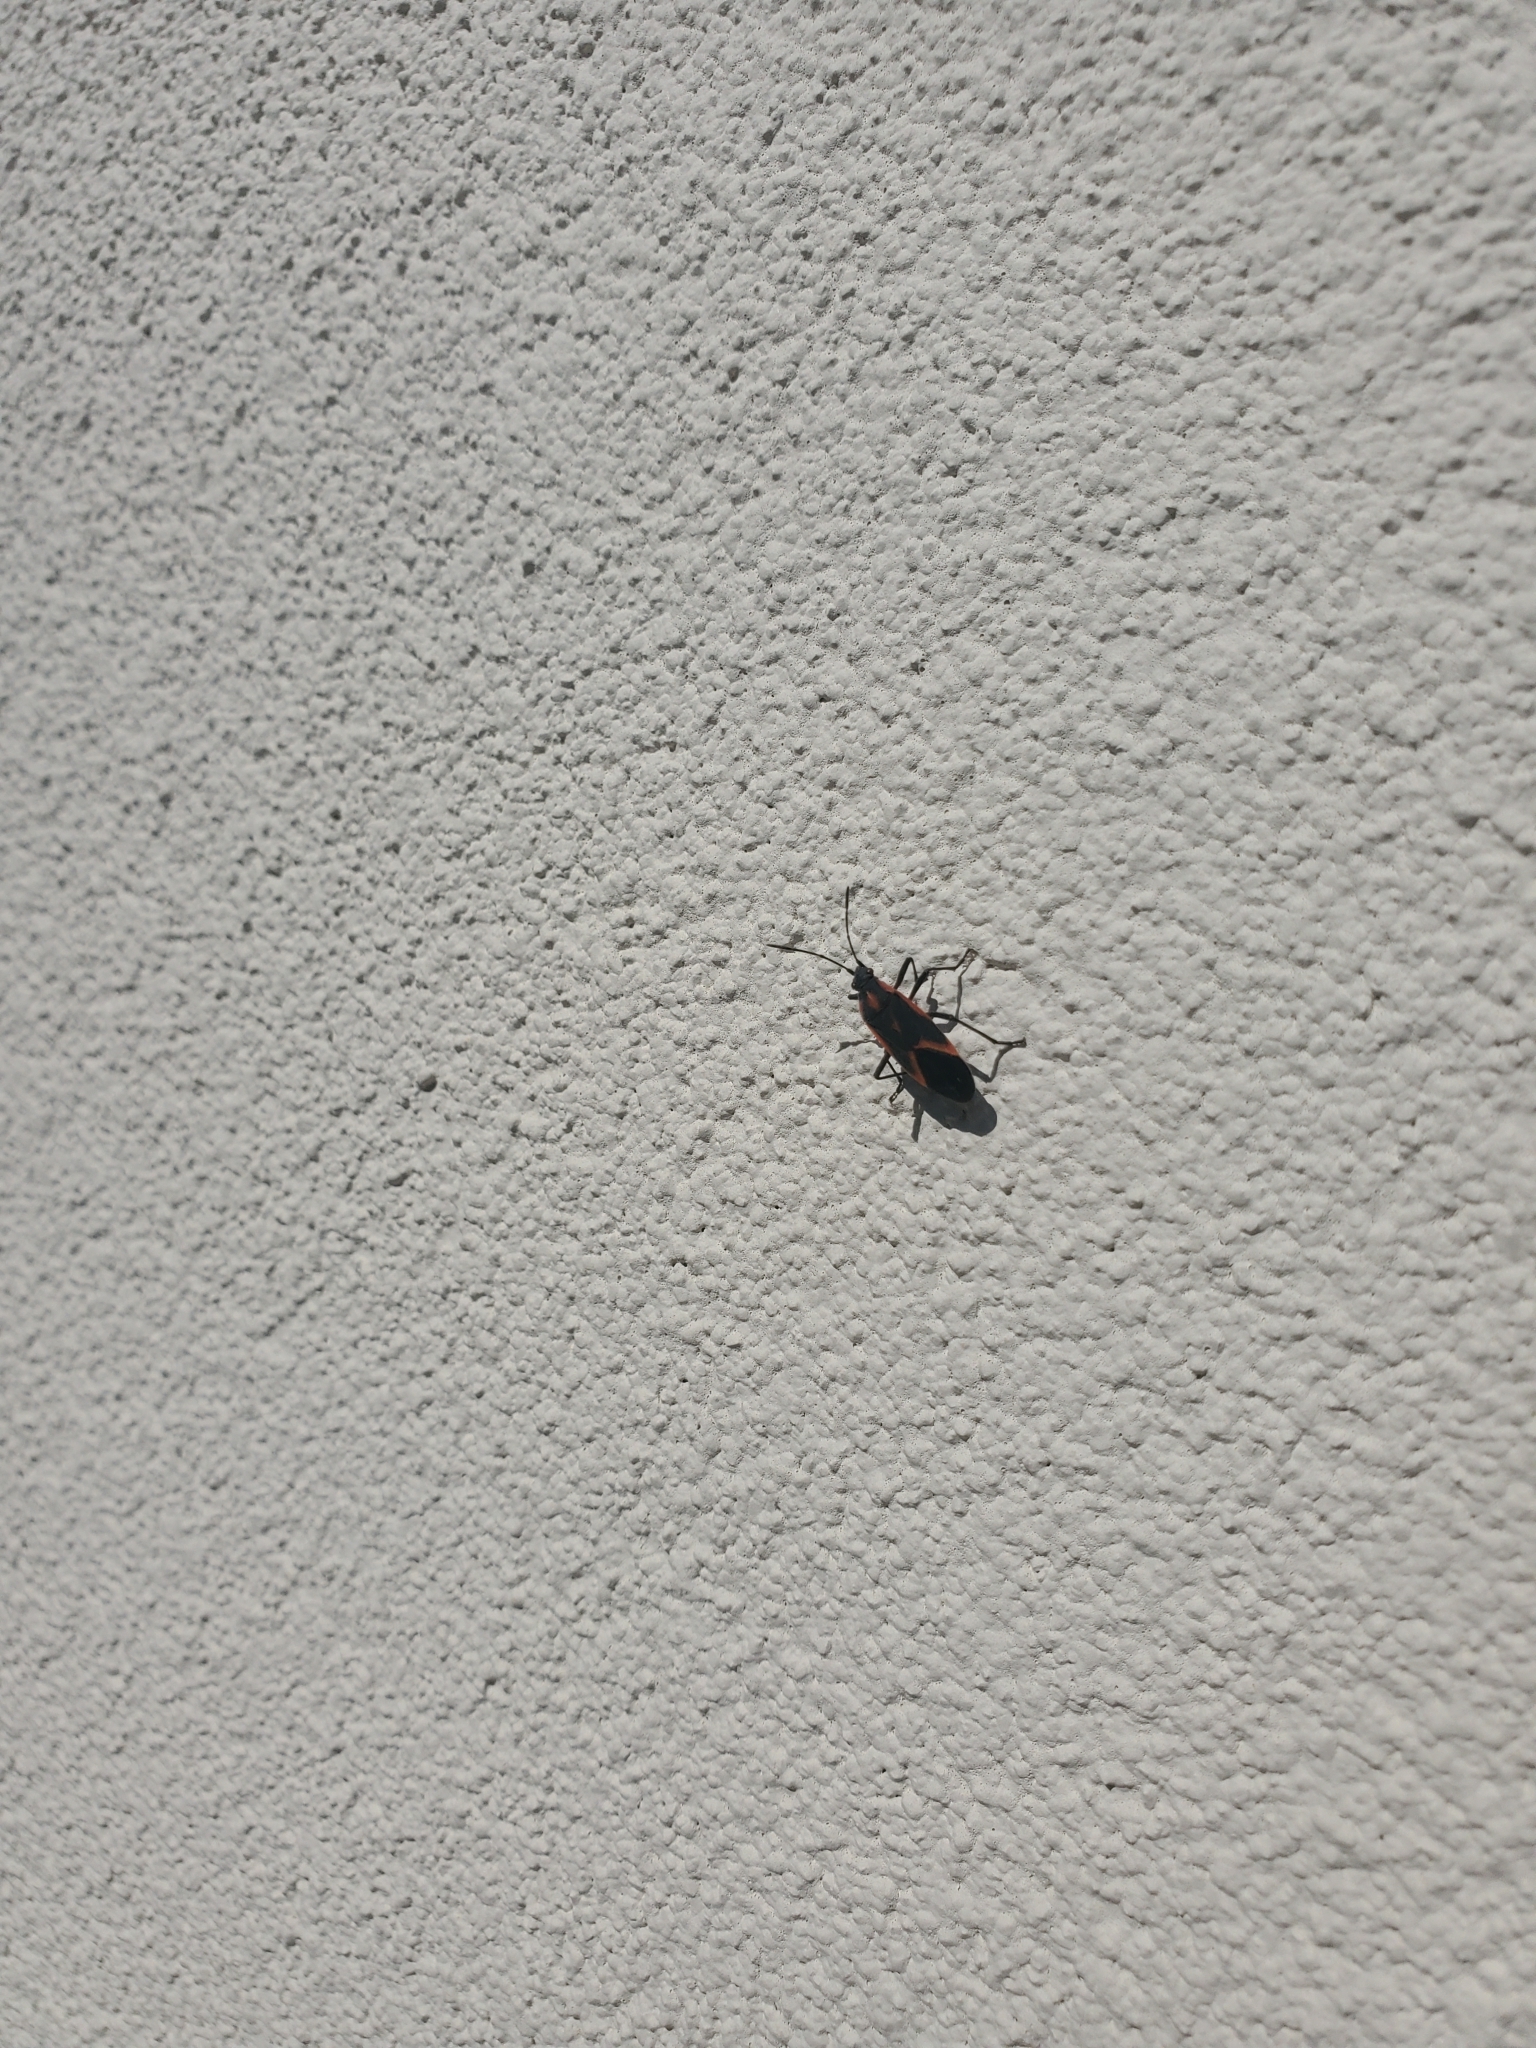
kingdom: Animalia
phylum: Arthropoda
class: Insecta
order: Hemiptera
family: Rhopalidae
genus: Boisea
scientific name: Boisea trivittata
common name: Boxelder bug
